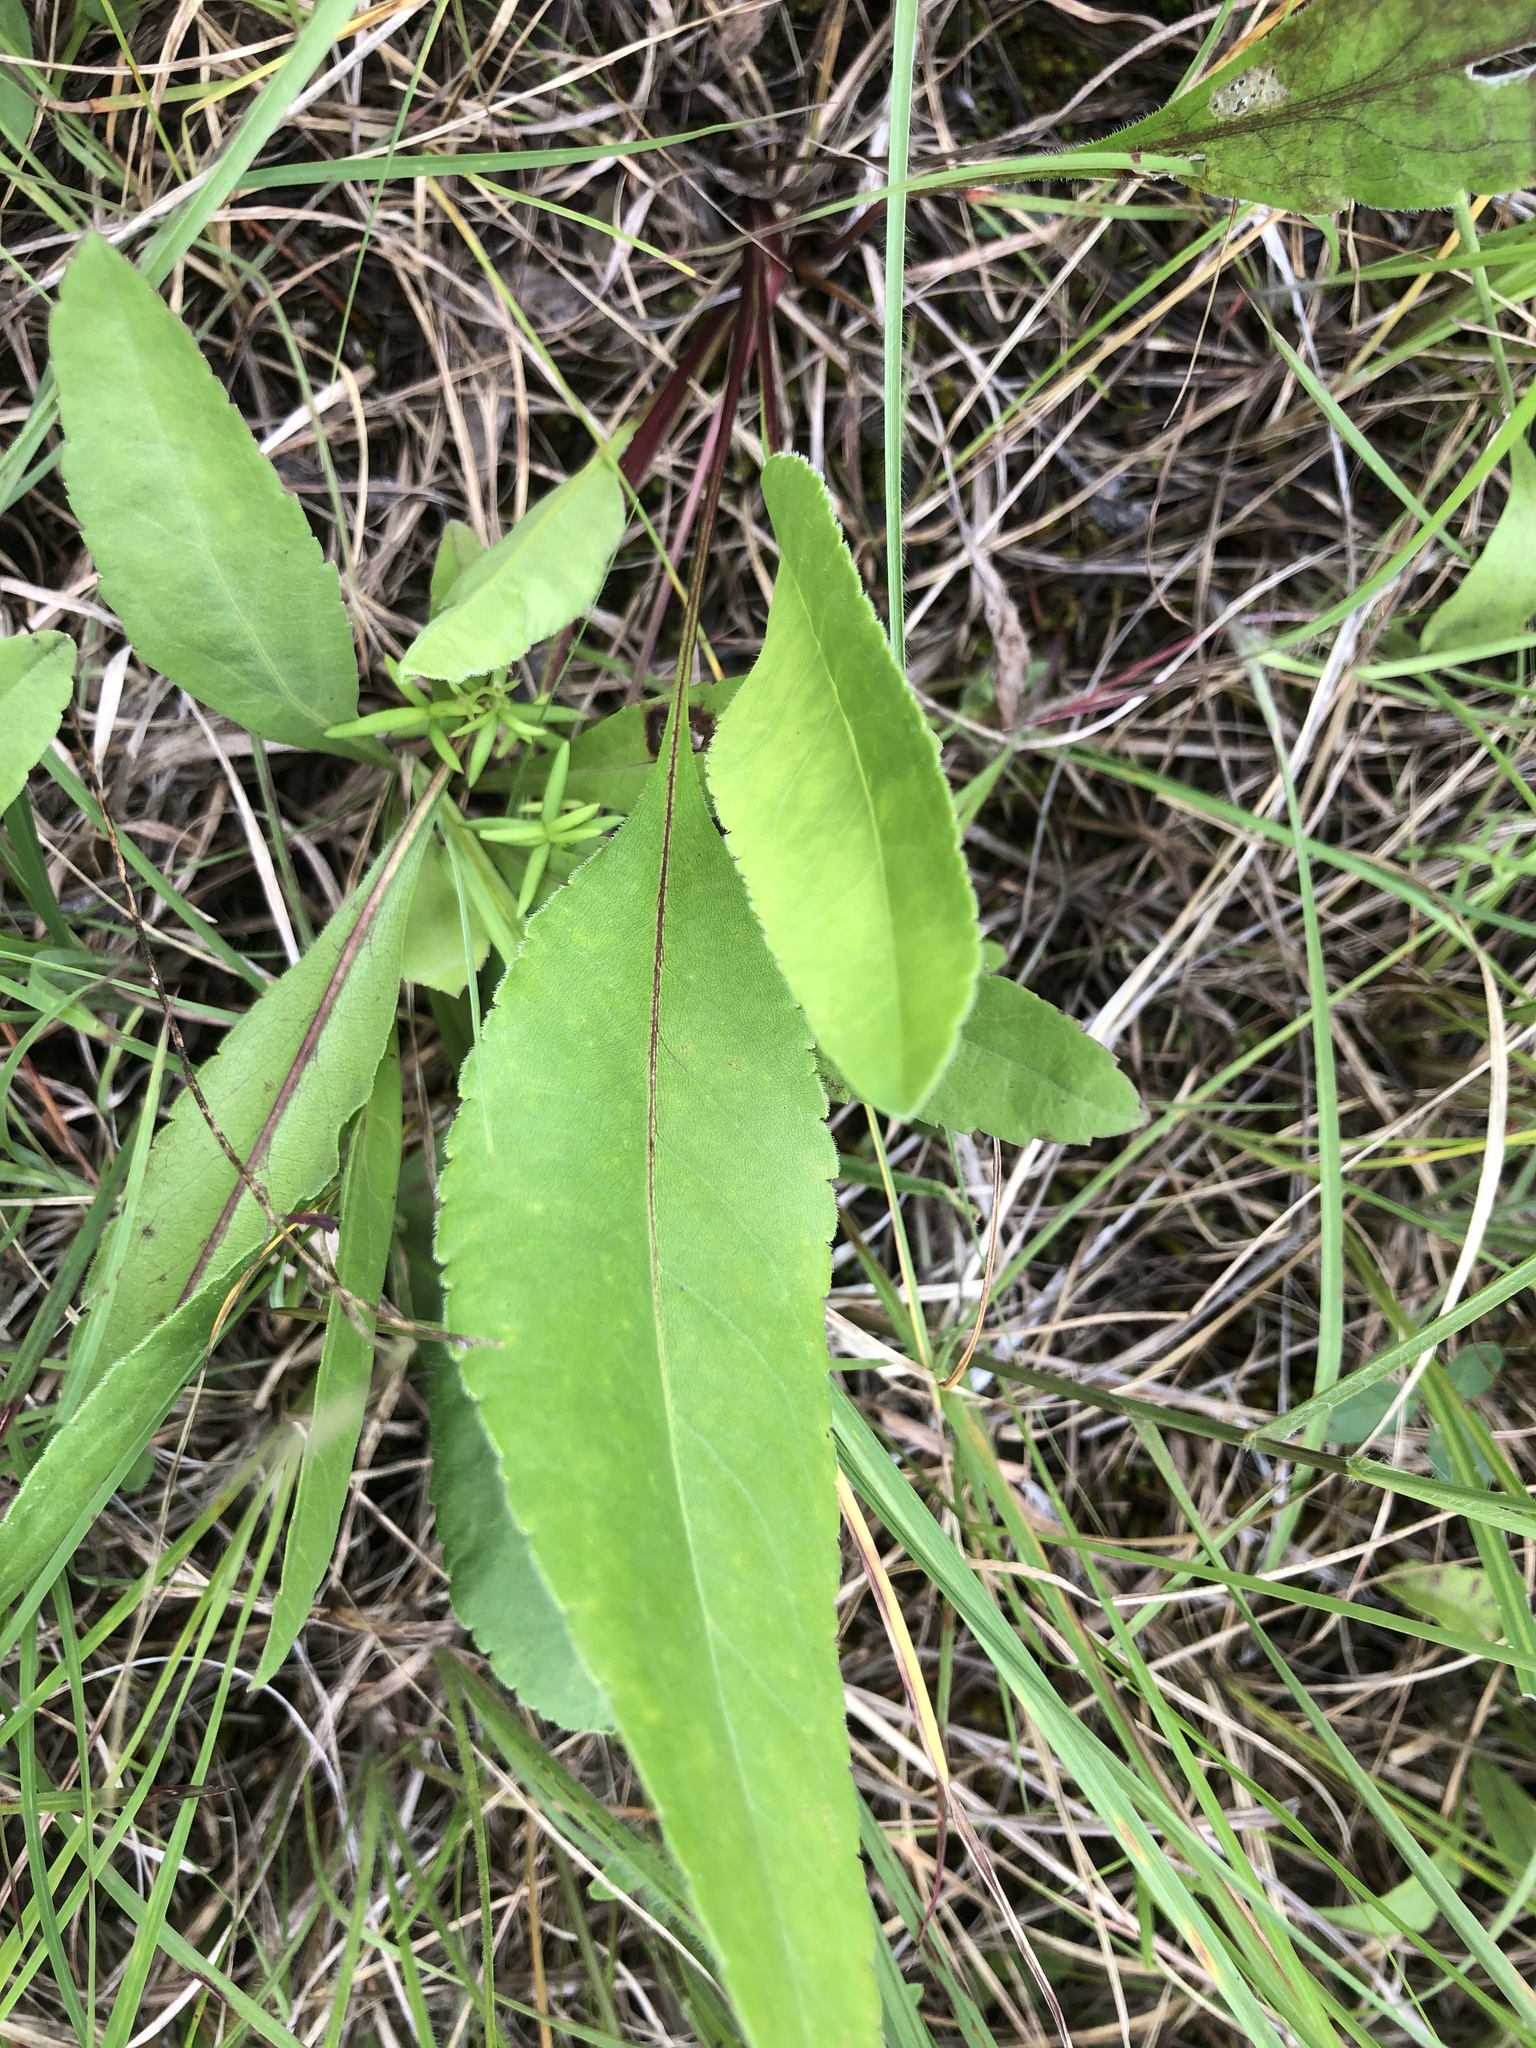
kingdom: Plantae
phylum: Tracheophyta
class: Magnoliopsida
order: Asterales
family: Asteraceae
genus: Solidago
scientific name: Solidago rigida
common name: Rigid goldenrod
